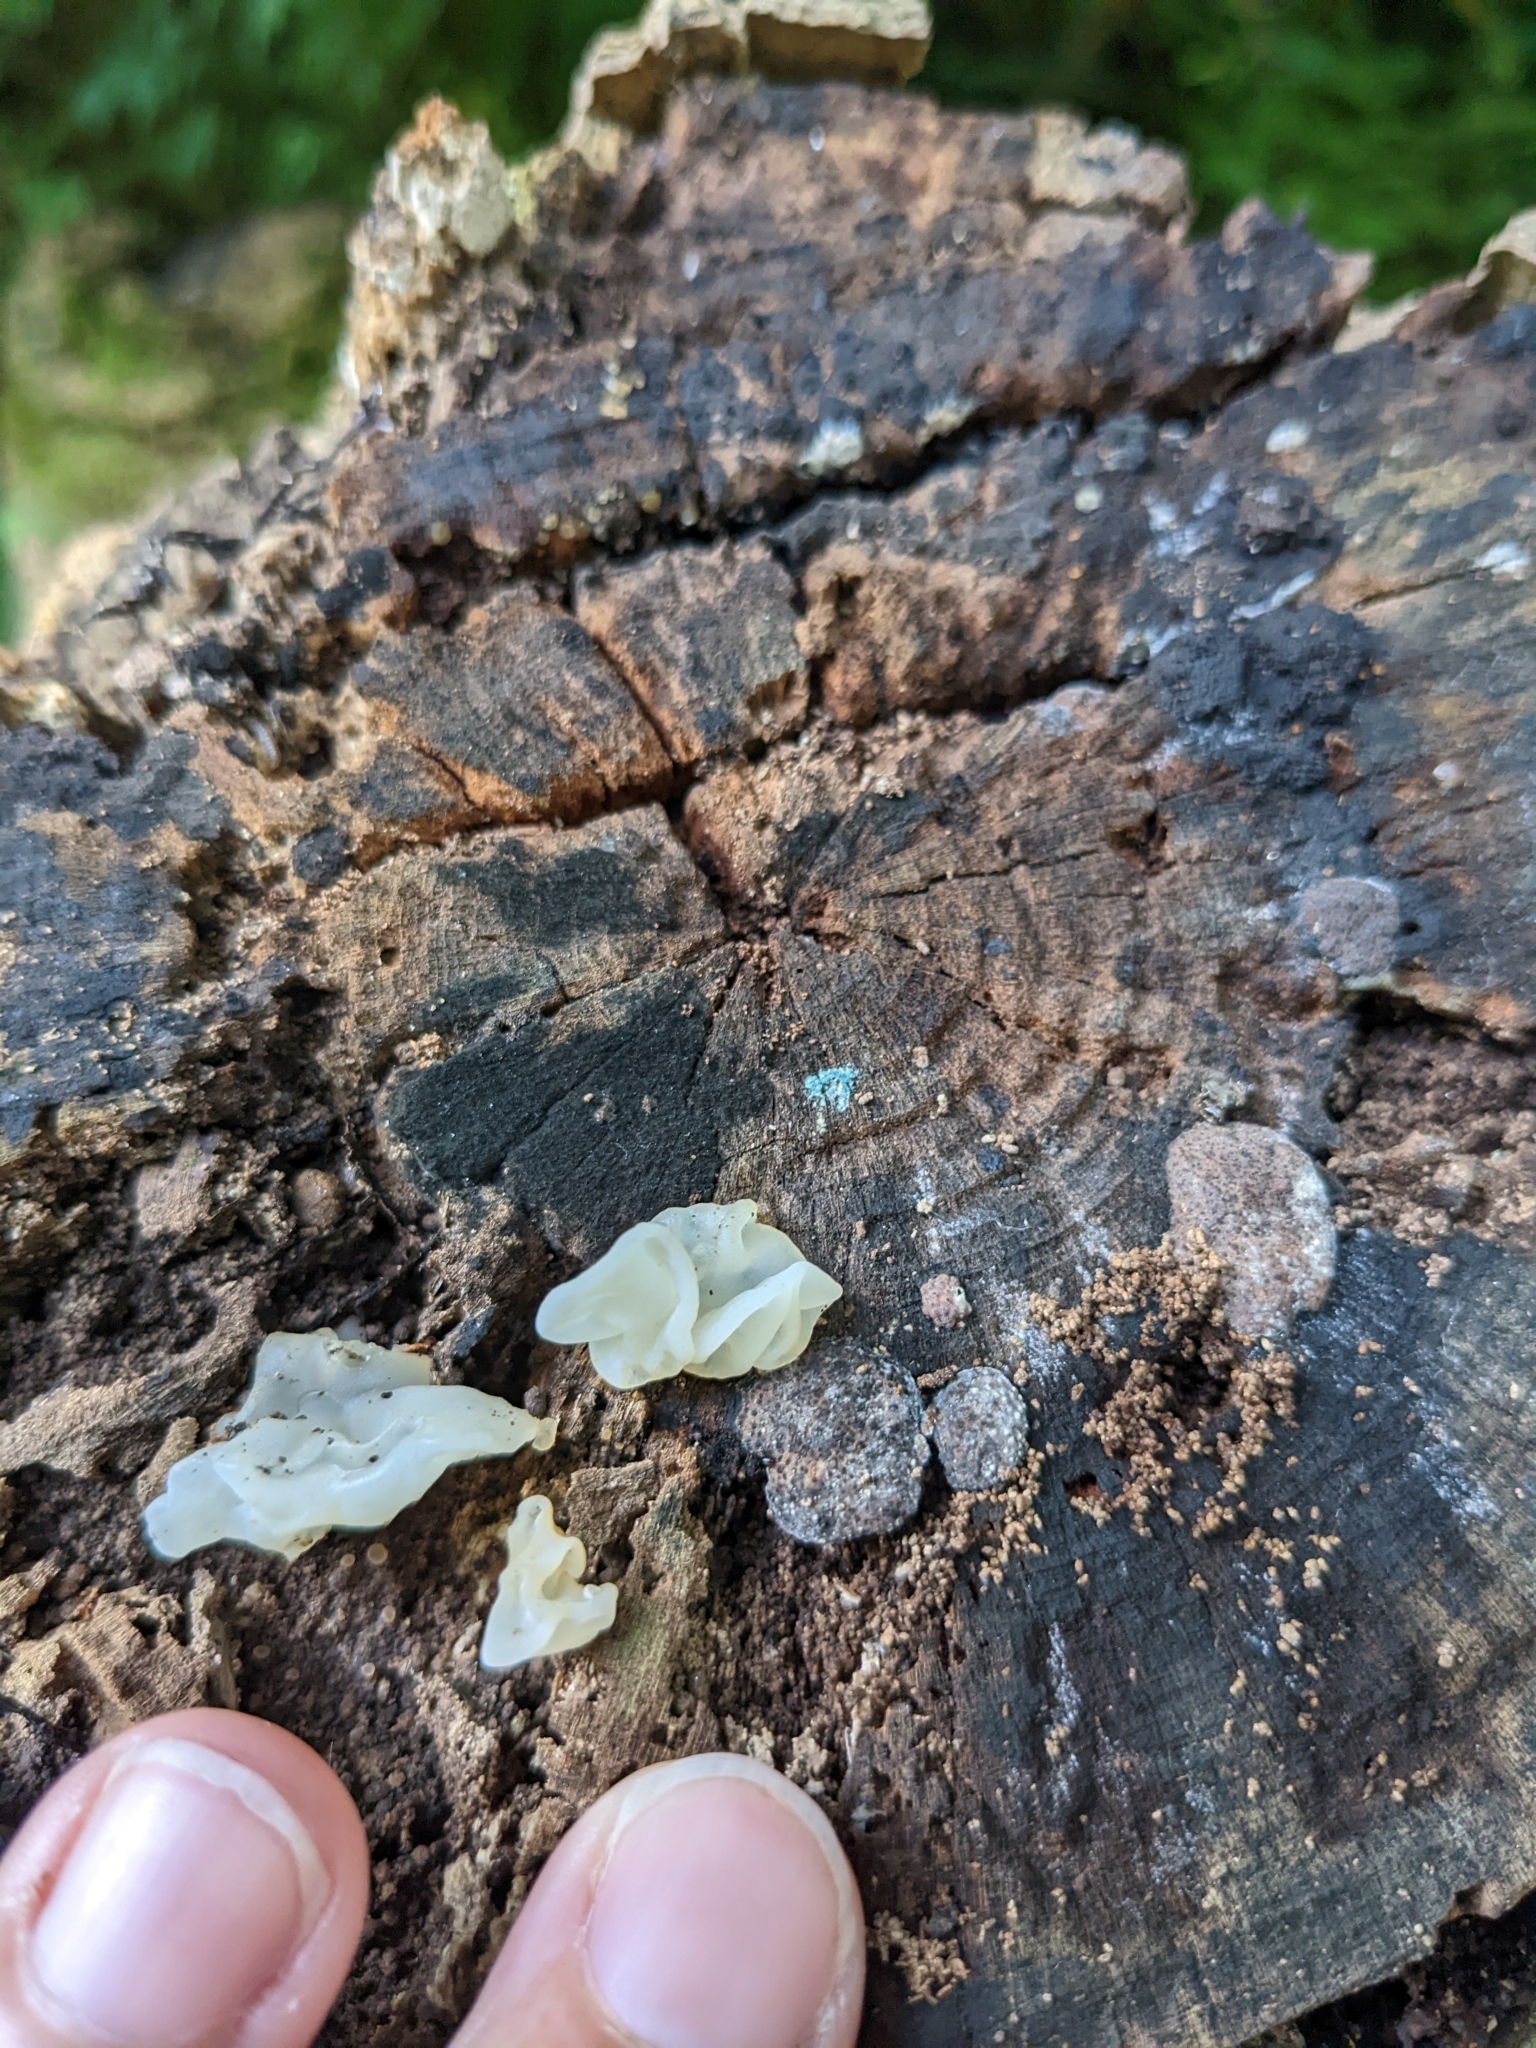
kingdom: Fungi
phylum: Basidiomycota
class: Agaricomycetes
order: Auriculariales
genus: Ductifera
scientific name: Ductifera pululahuana
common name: White jelly fungus
